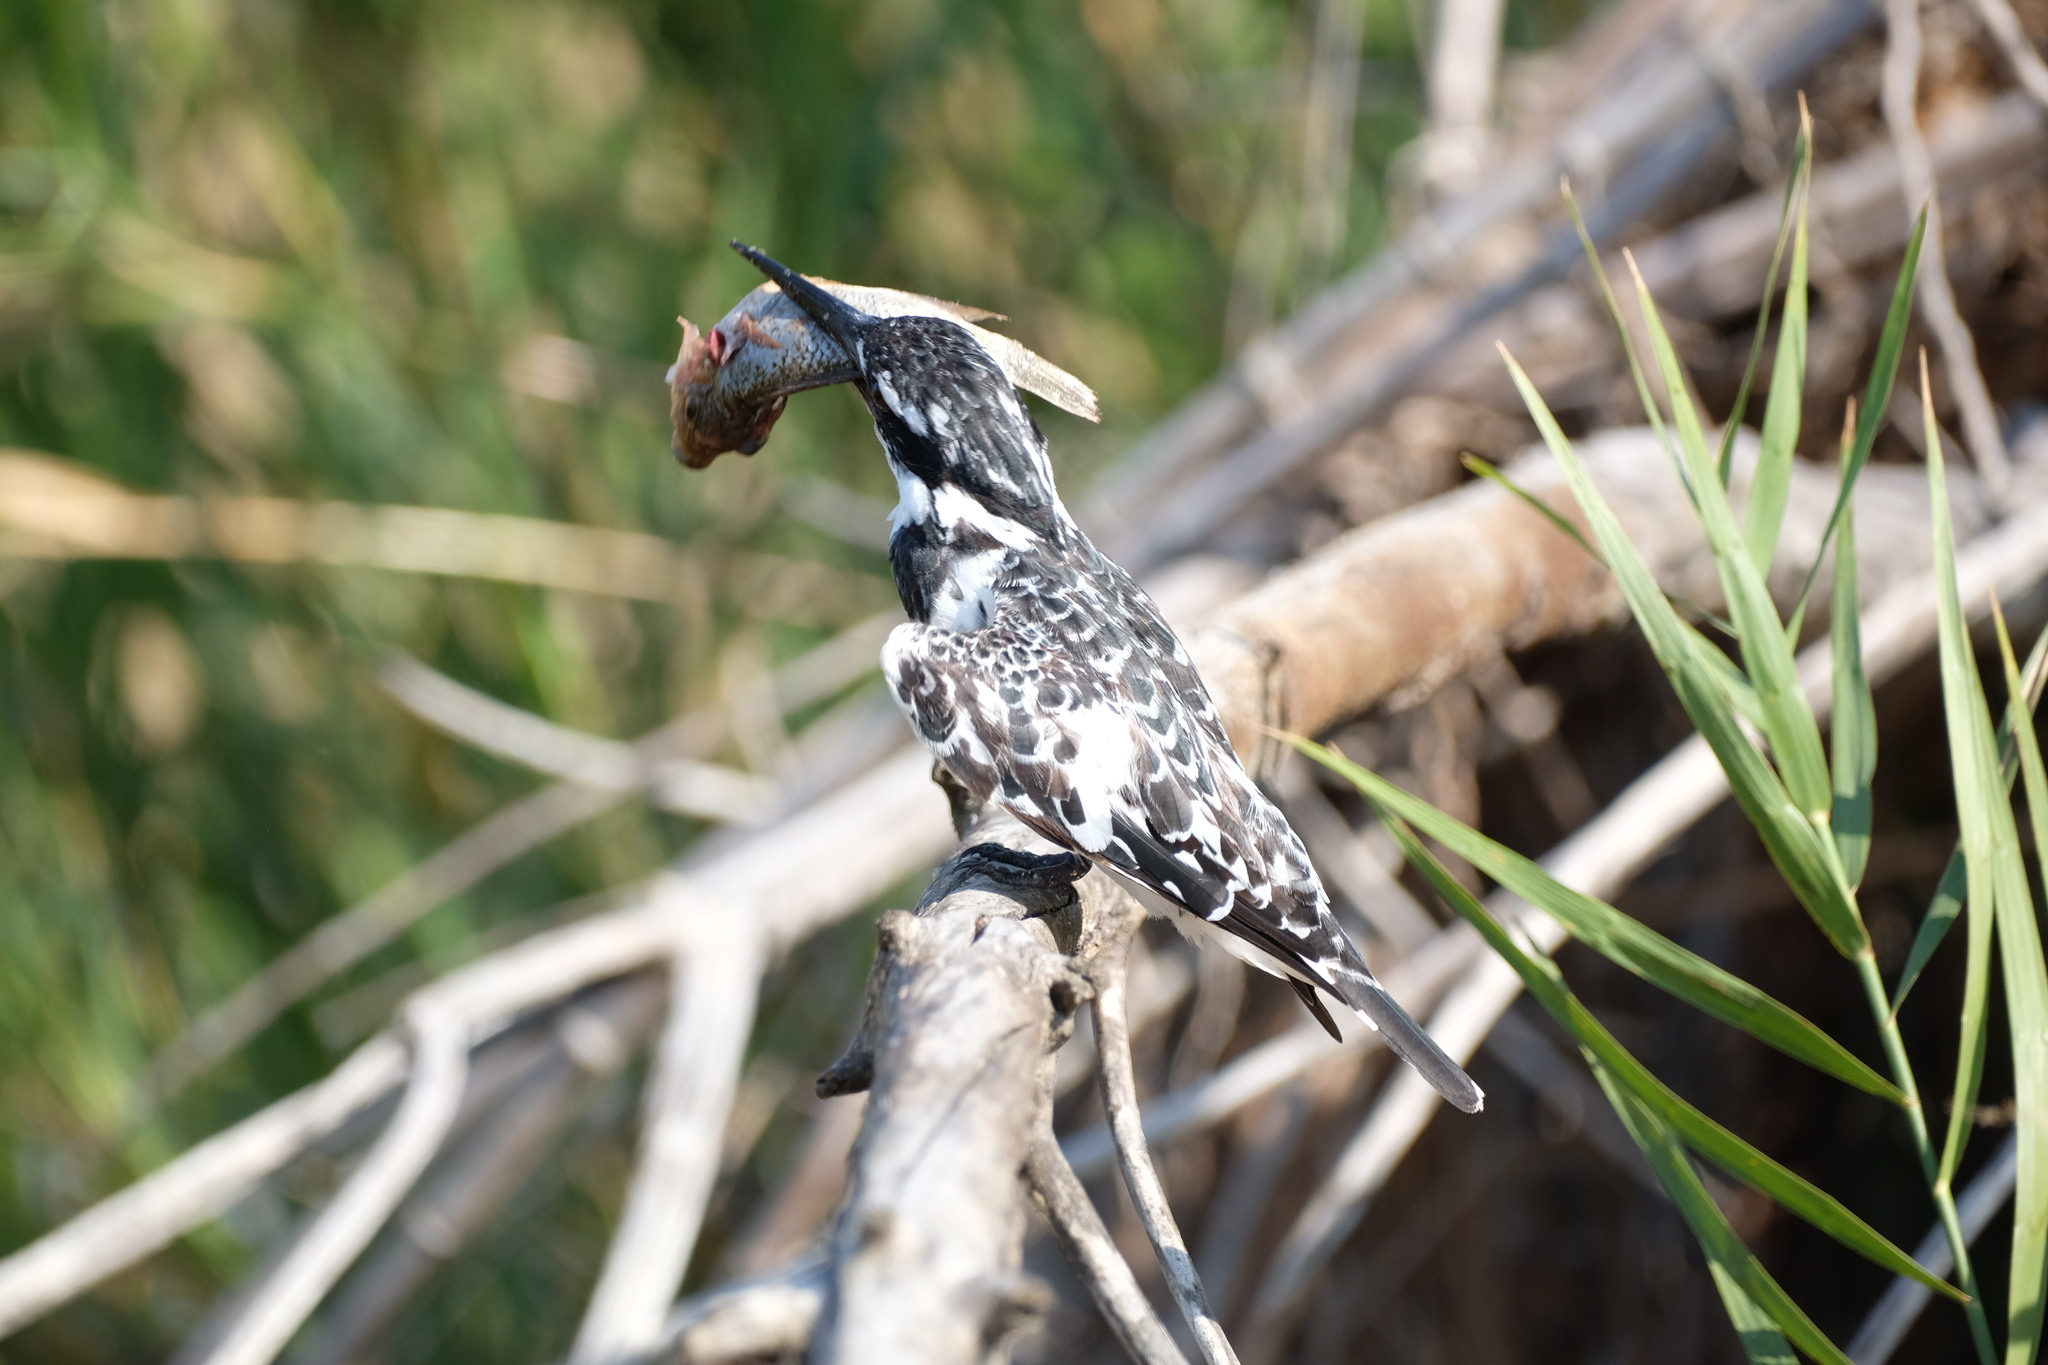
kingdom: Animalia
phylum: Chordata
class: Aves
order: Coraciiformes
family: Alcedinidae
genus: Ceryle
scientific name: Ceryle rudis
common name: Pied kingfisher
